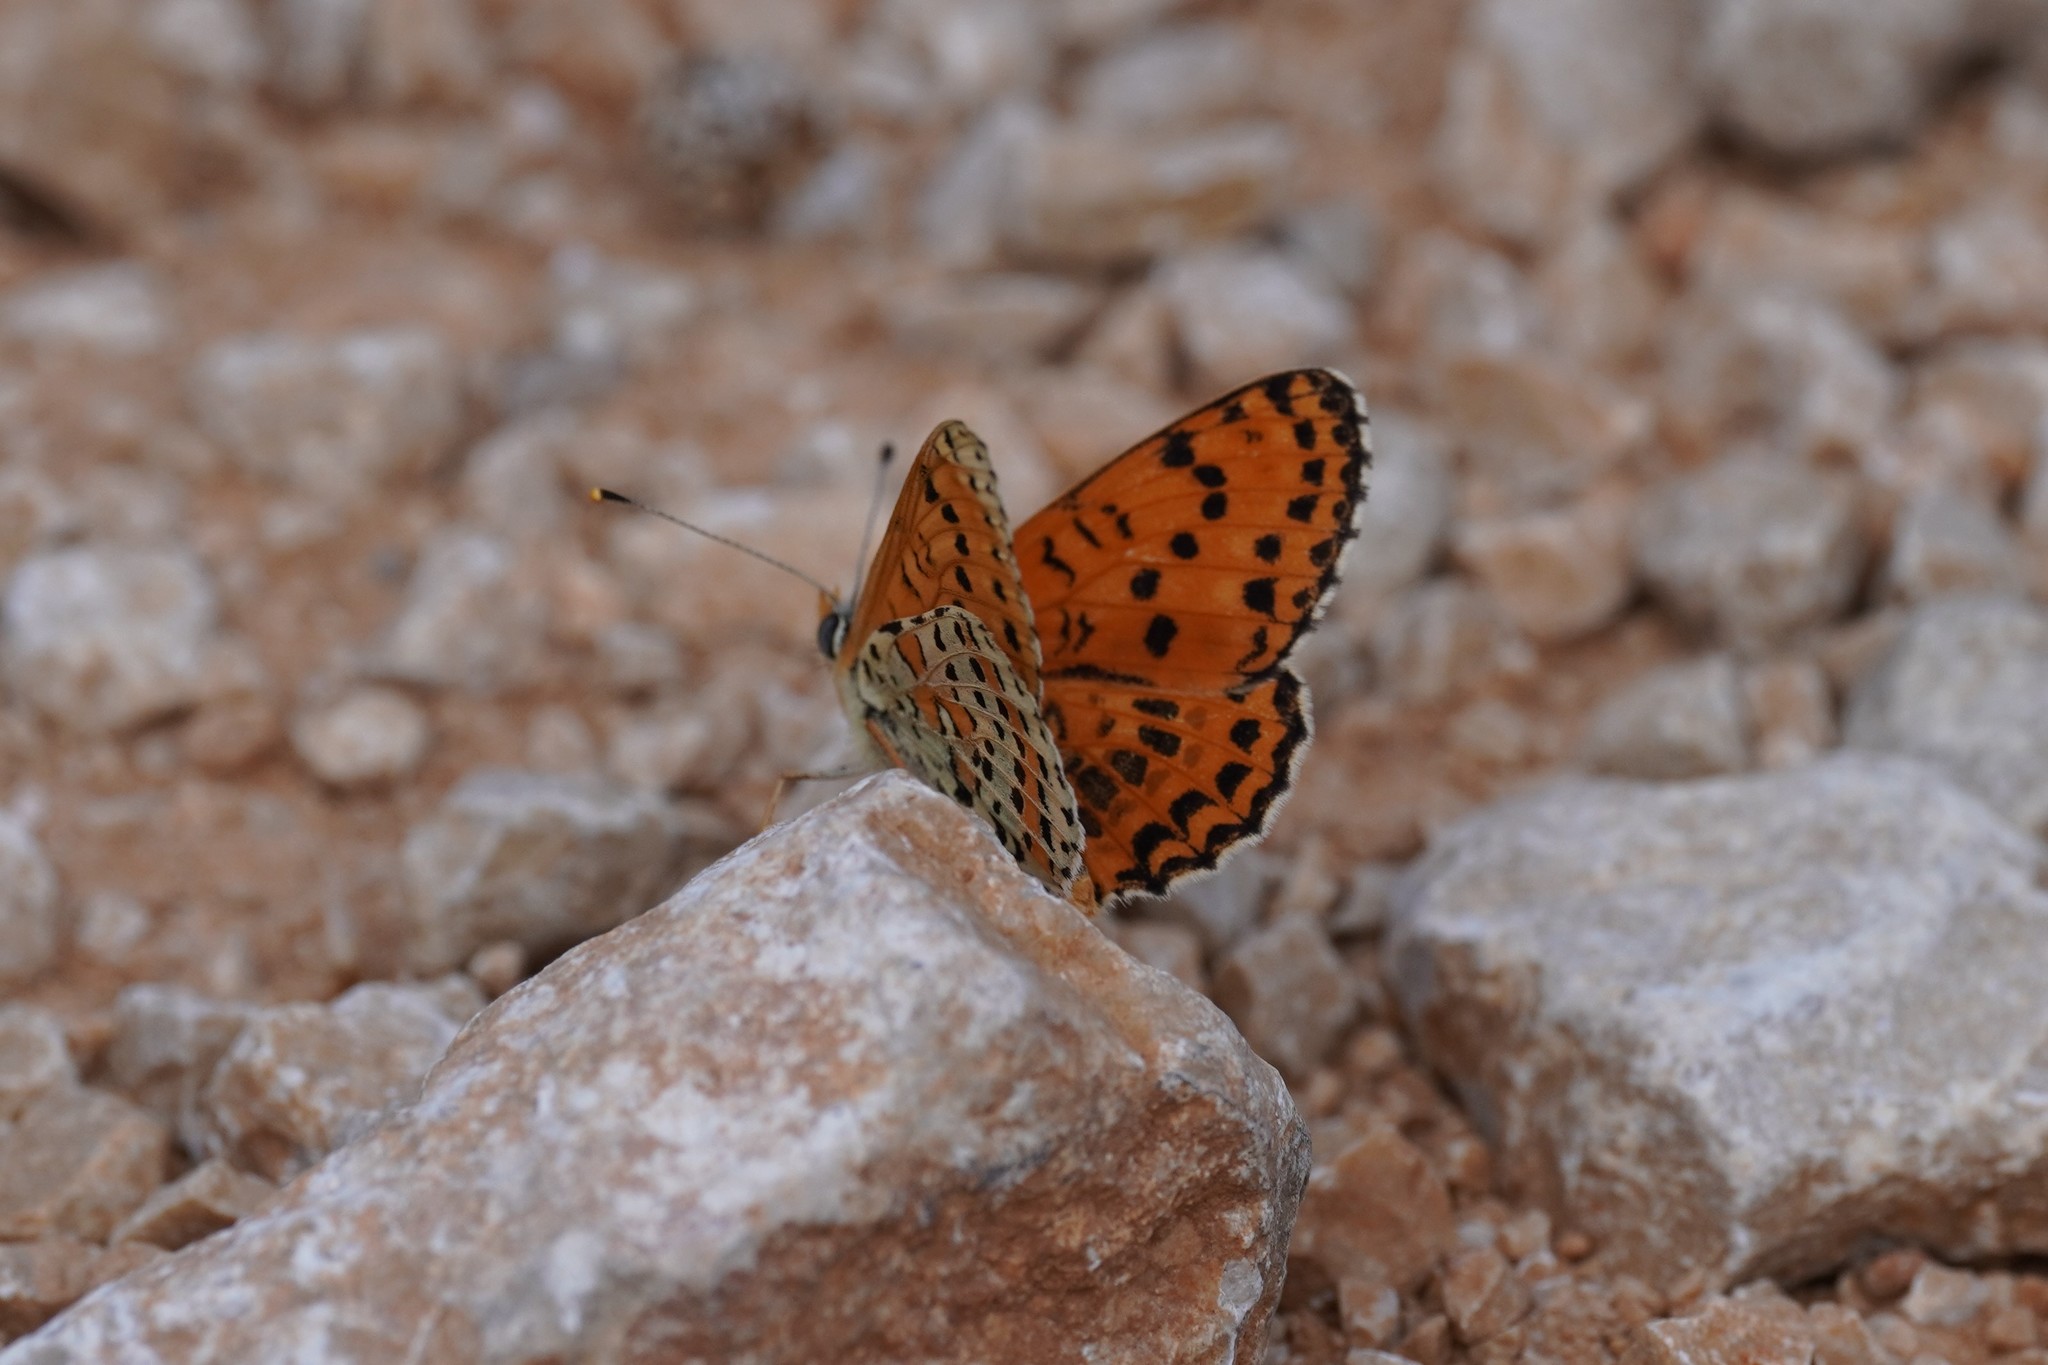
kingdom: Animalia
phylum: Arthropoda
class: Insecta
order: Lepidoptera
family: Nymphalidae
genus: Melitaea
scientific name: Melitaea didyma
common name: Spotted fritillary
